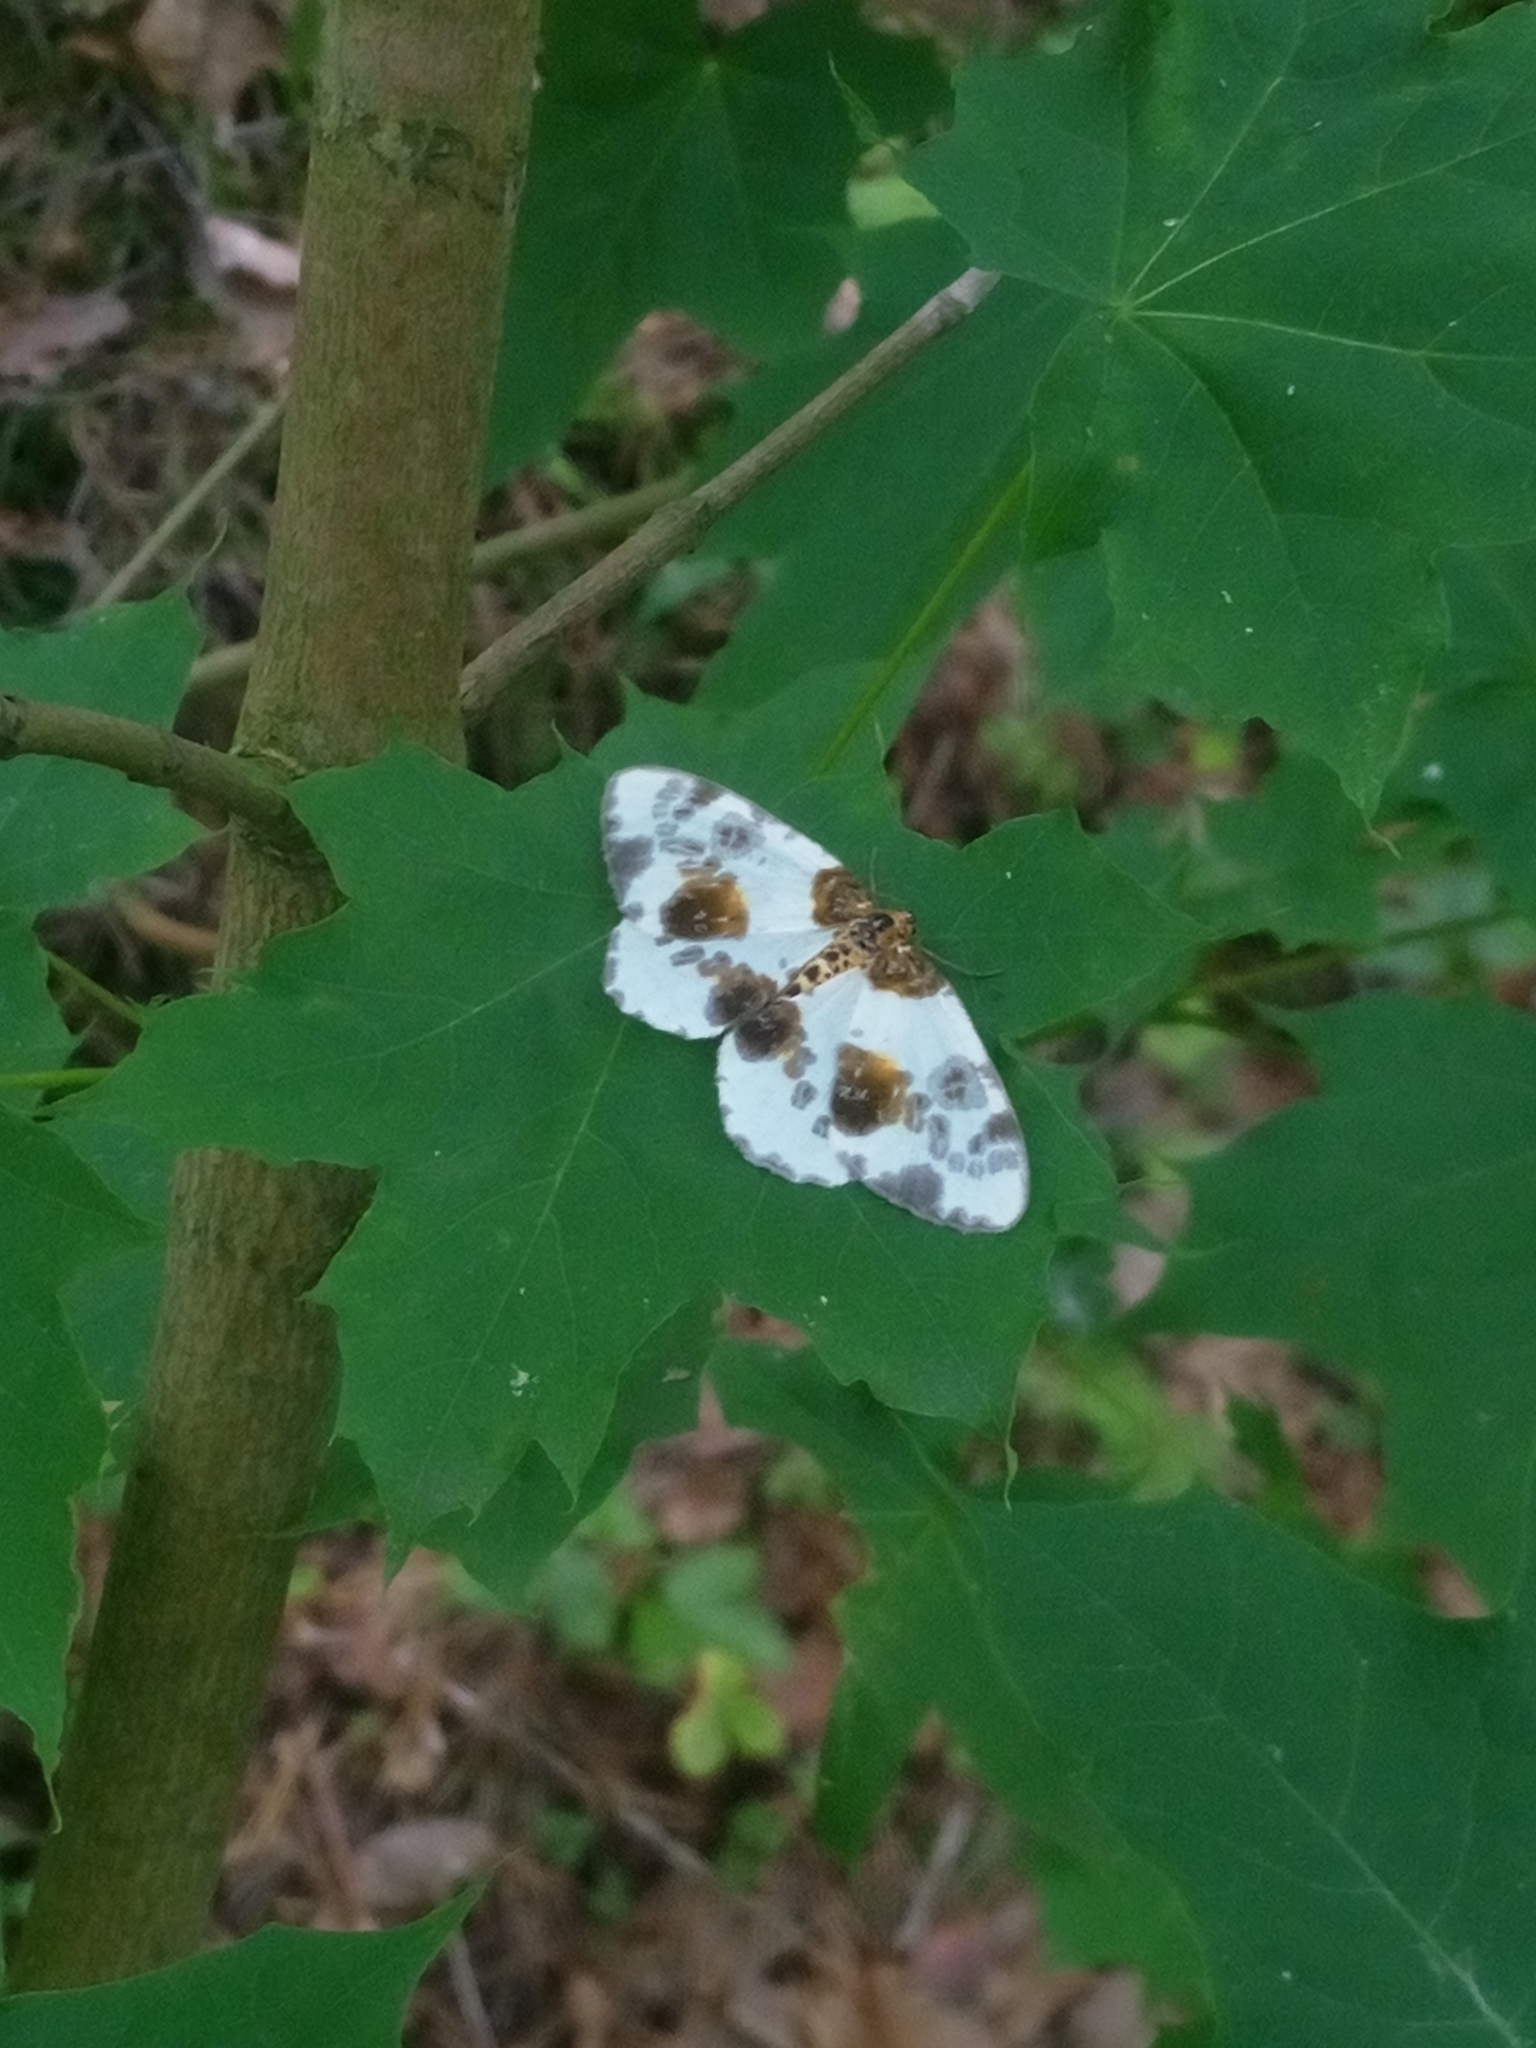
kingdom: Animalia
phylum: Arthropoda
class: Insecta
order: Lepidoptera
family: Geometridae
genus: Abraxas
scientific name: Abraxas sylvata
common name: Clouded magpie
